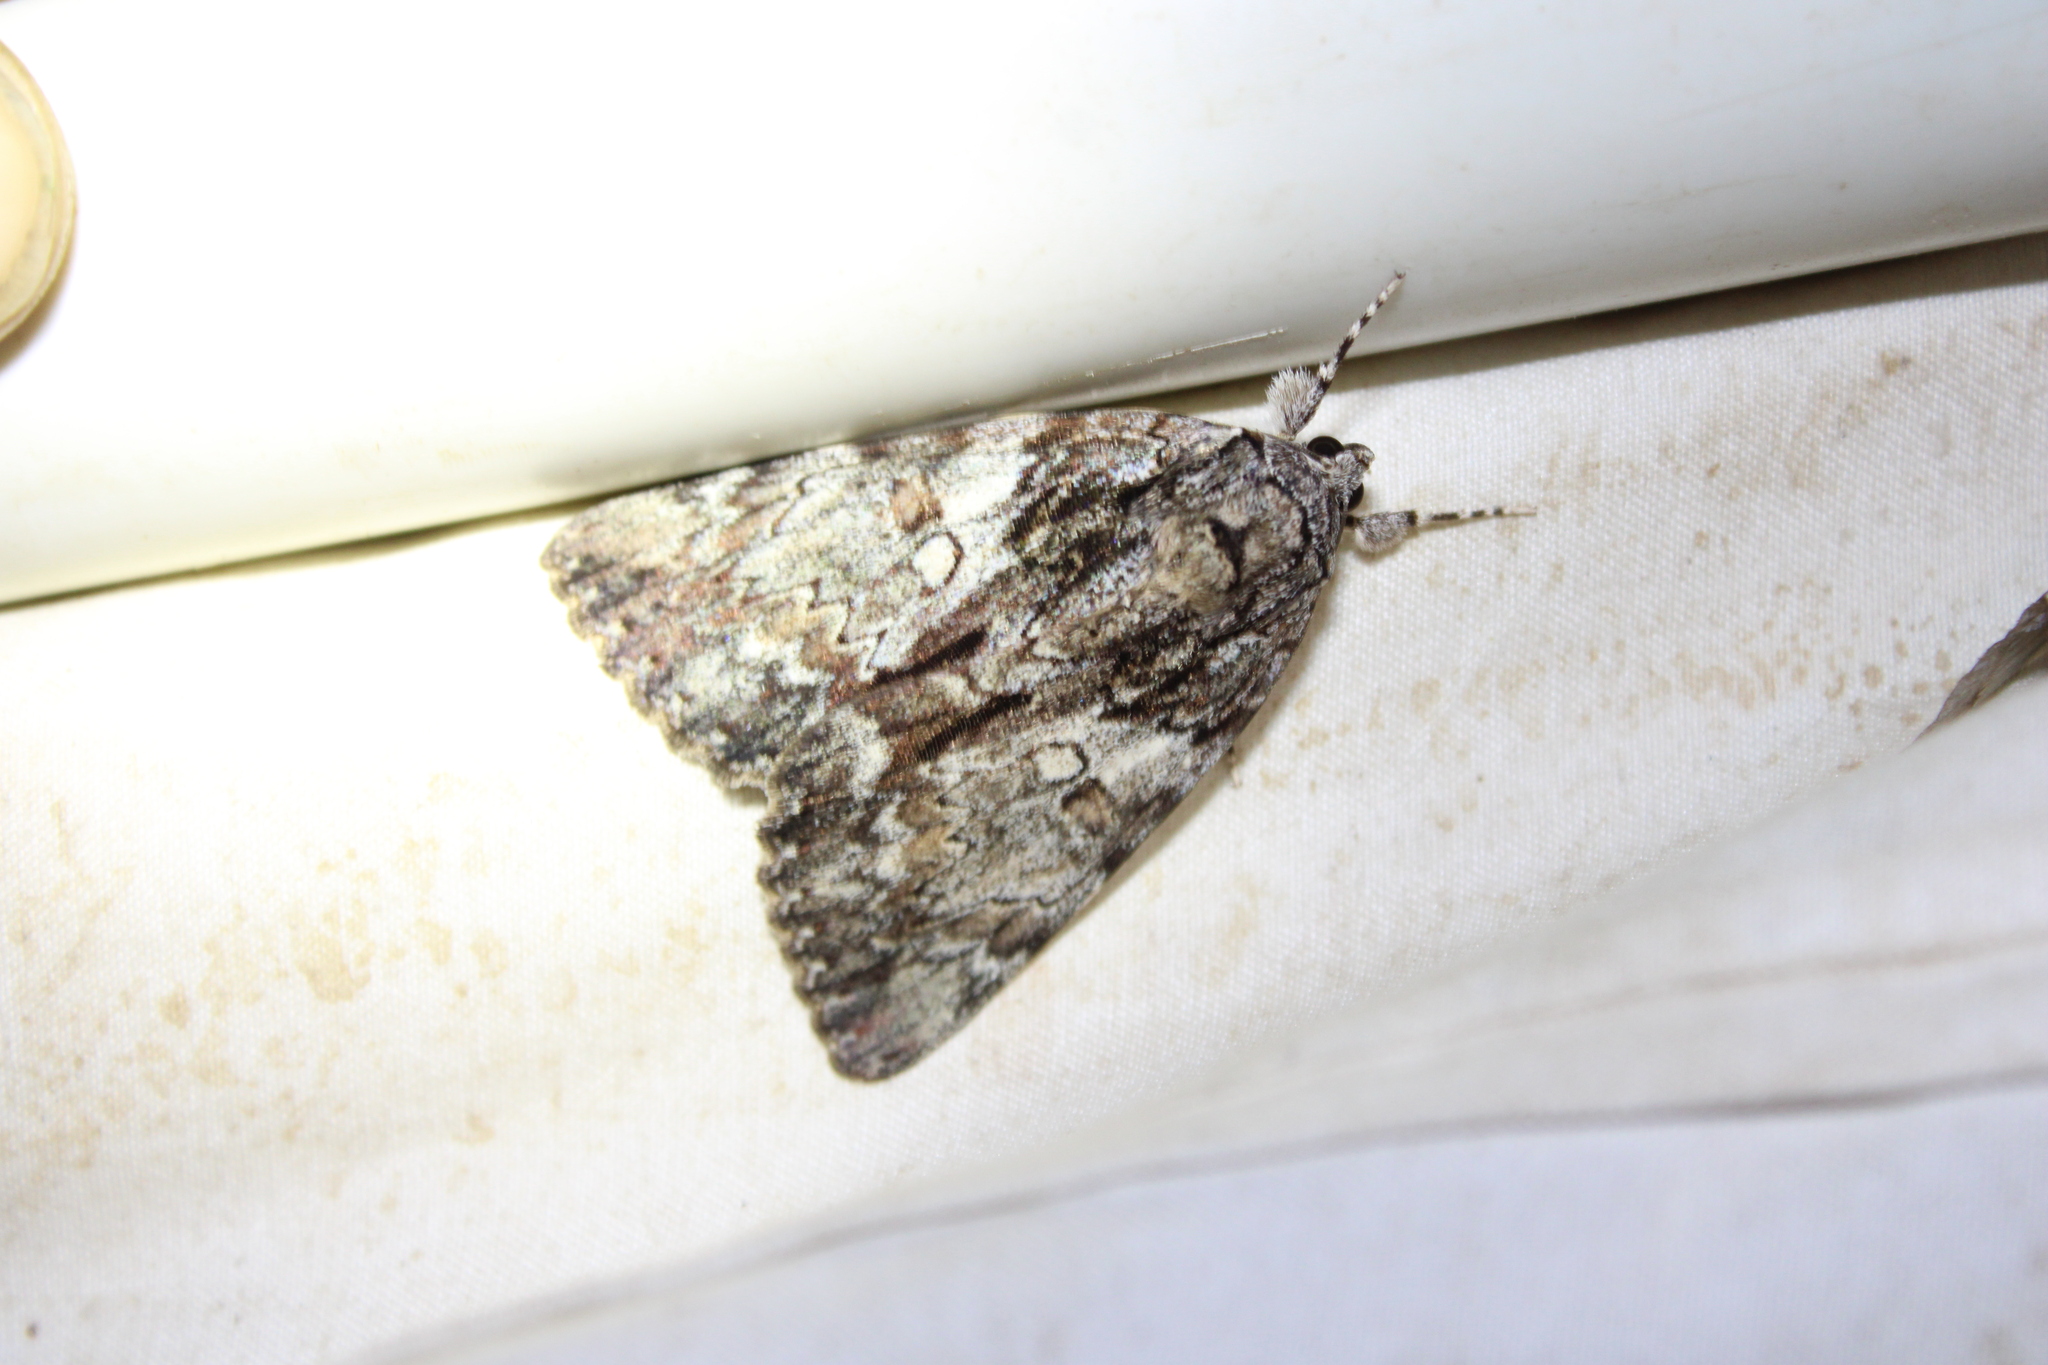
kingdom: Animalia
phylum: Arthropoda
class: Insecta
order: Lepidoptera
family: Erebidae
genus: Catocala
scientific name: Catocala palaeogama
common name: Oldwife underwing
